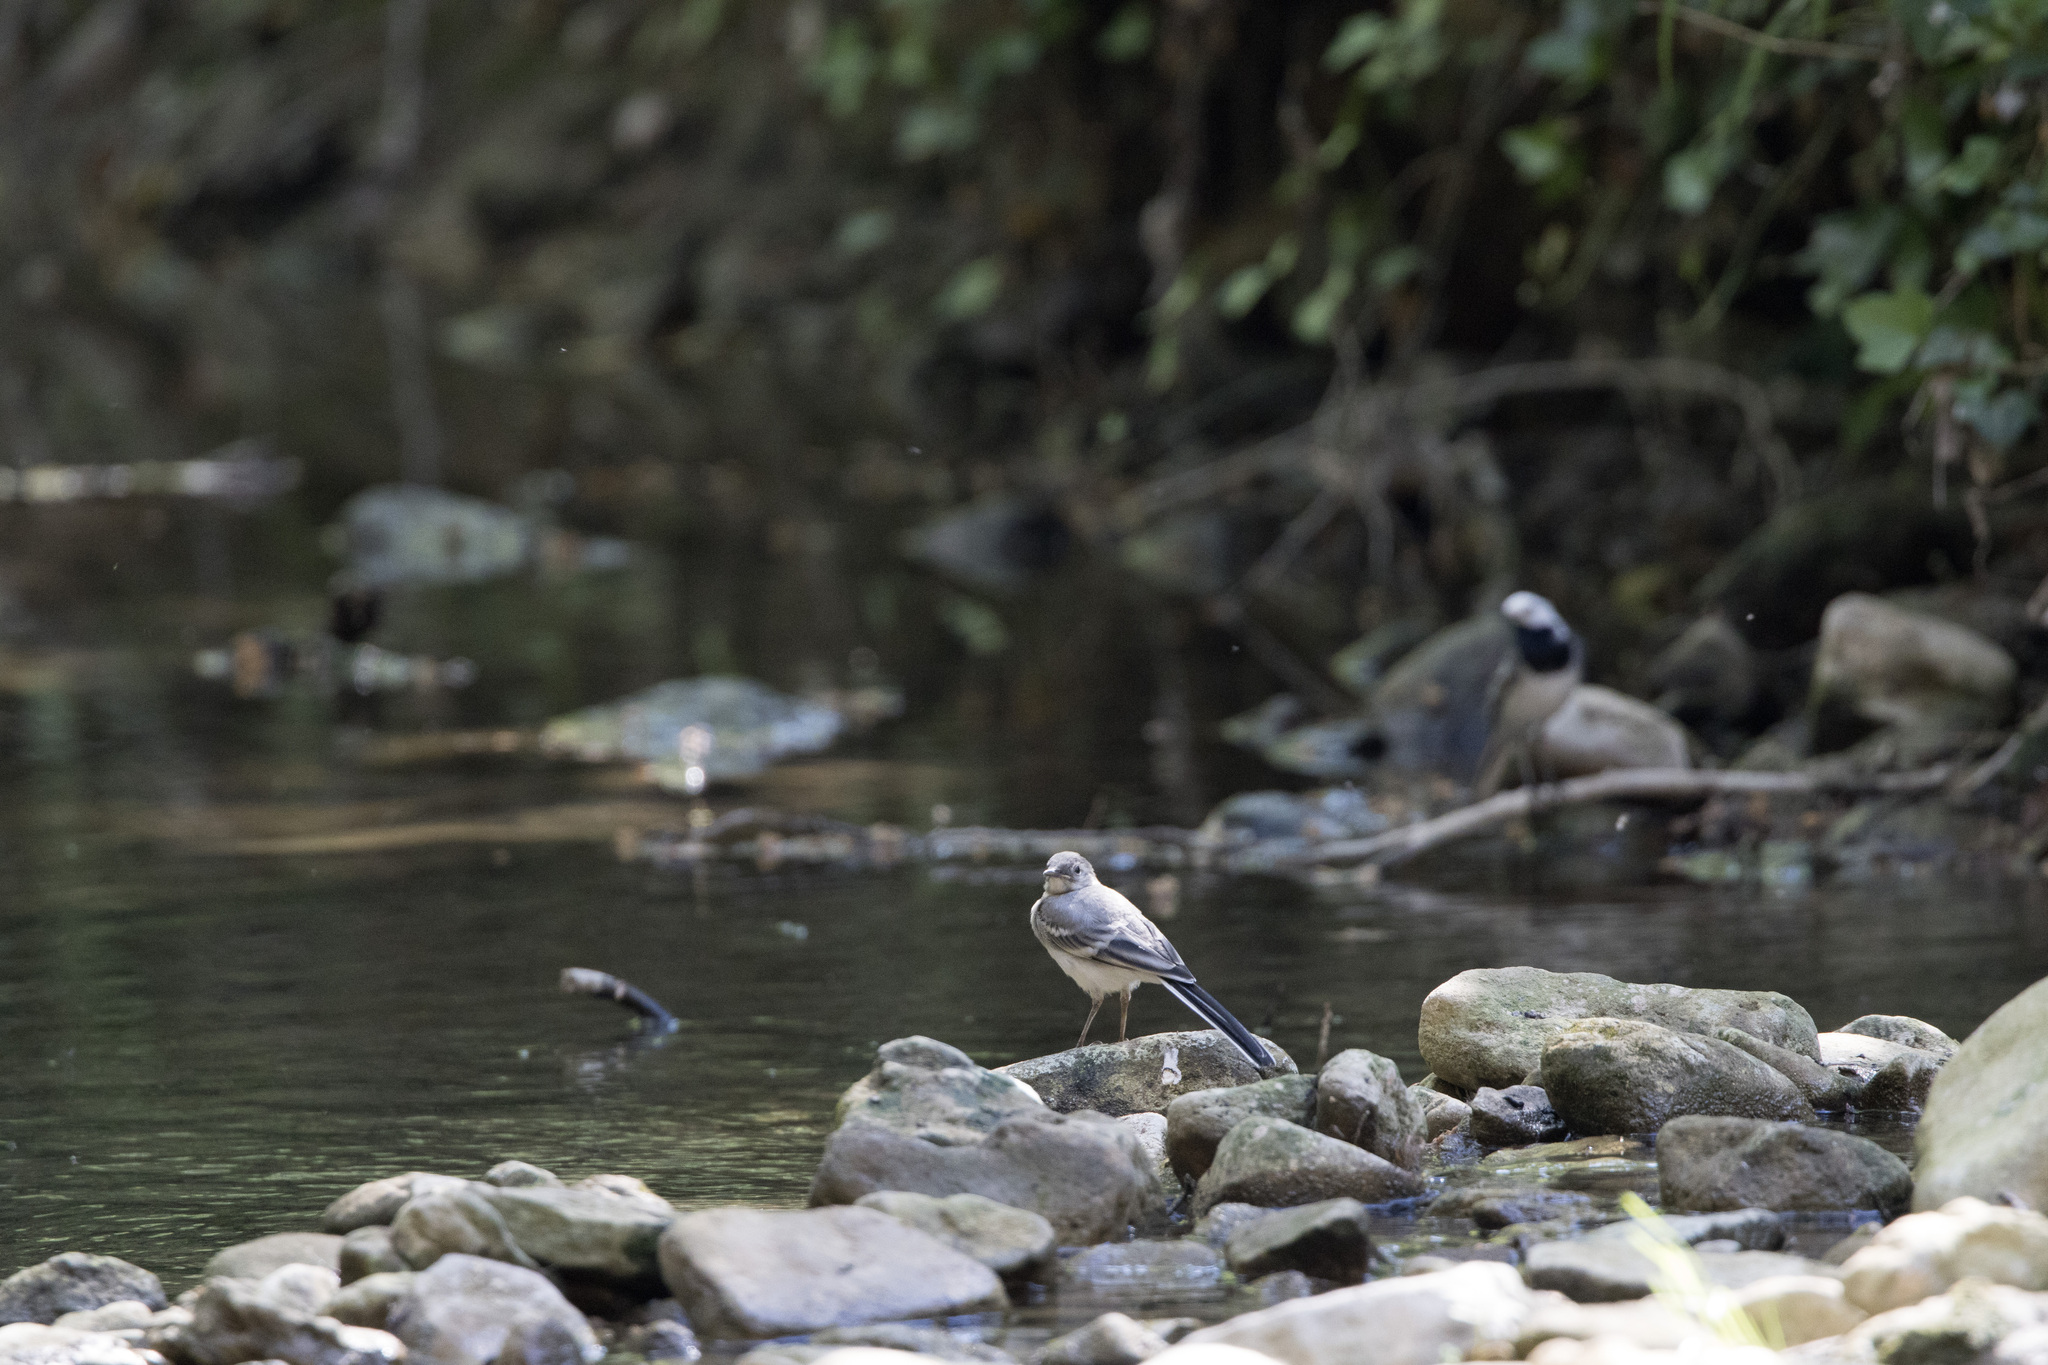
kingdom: Animalia
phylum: Chordata
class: Aves
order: Passeriformes
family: Motacillidae
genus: Motacilla
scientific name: Motacilla alba
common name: White wagtail
